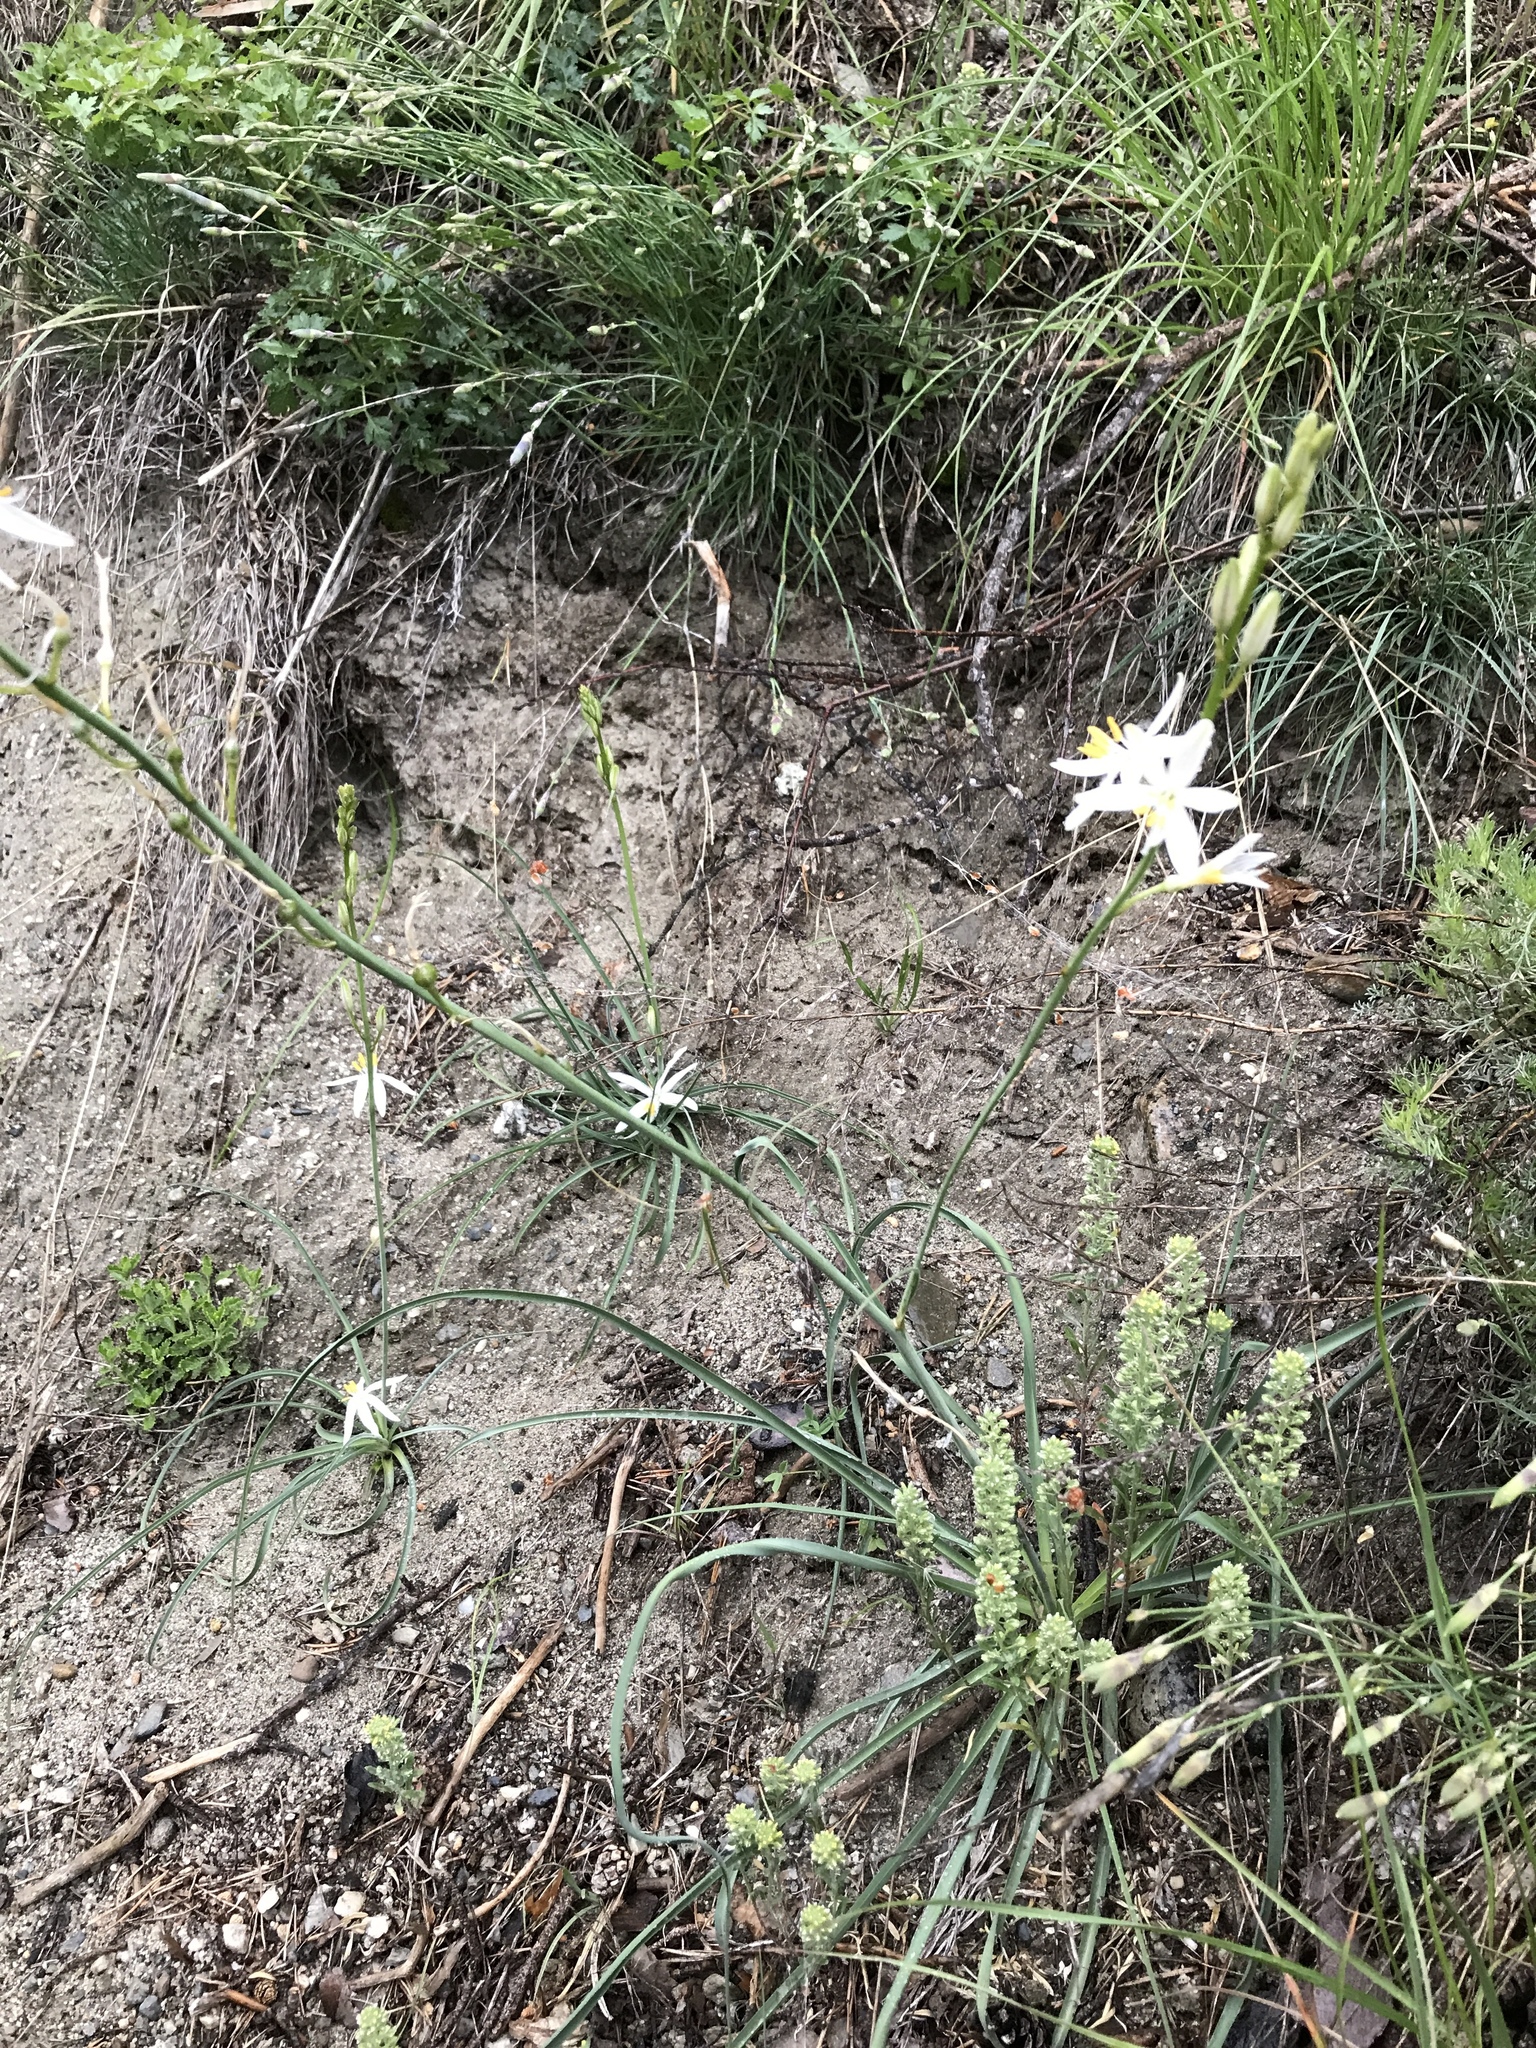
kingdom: Plantae
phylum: Tracheophyta
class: Liliopsida
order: Asparagales
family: Asparagaceae
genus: Anthericum
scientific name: Anthericum liliago
